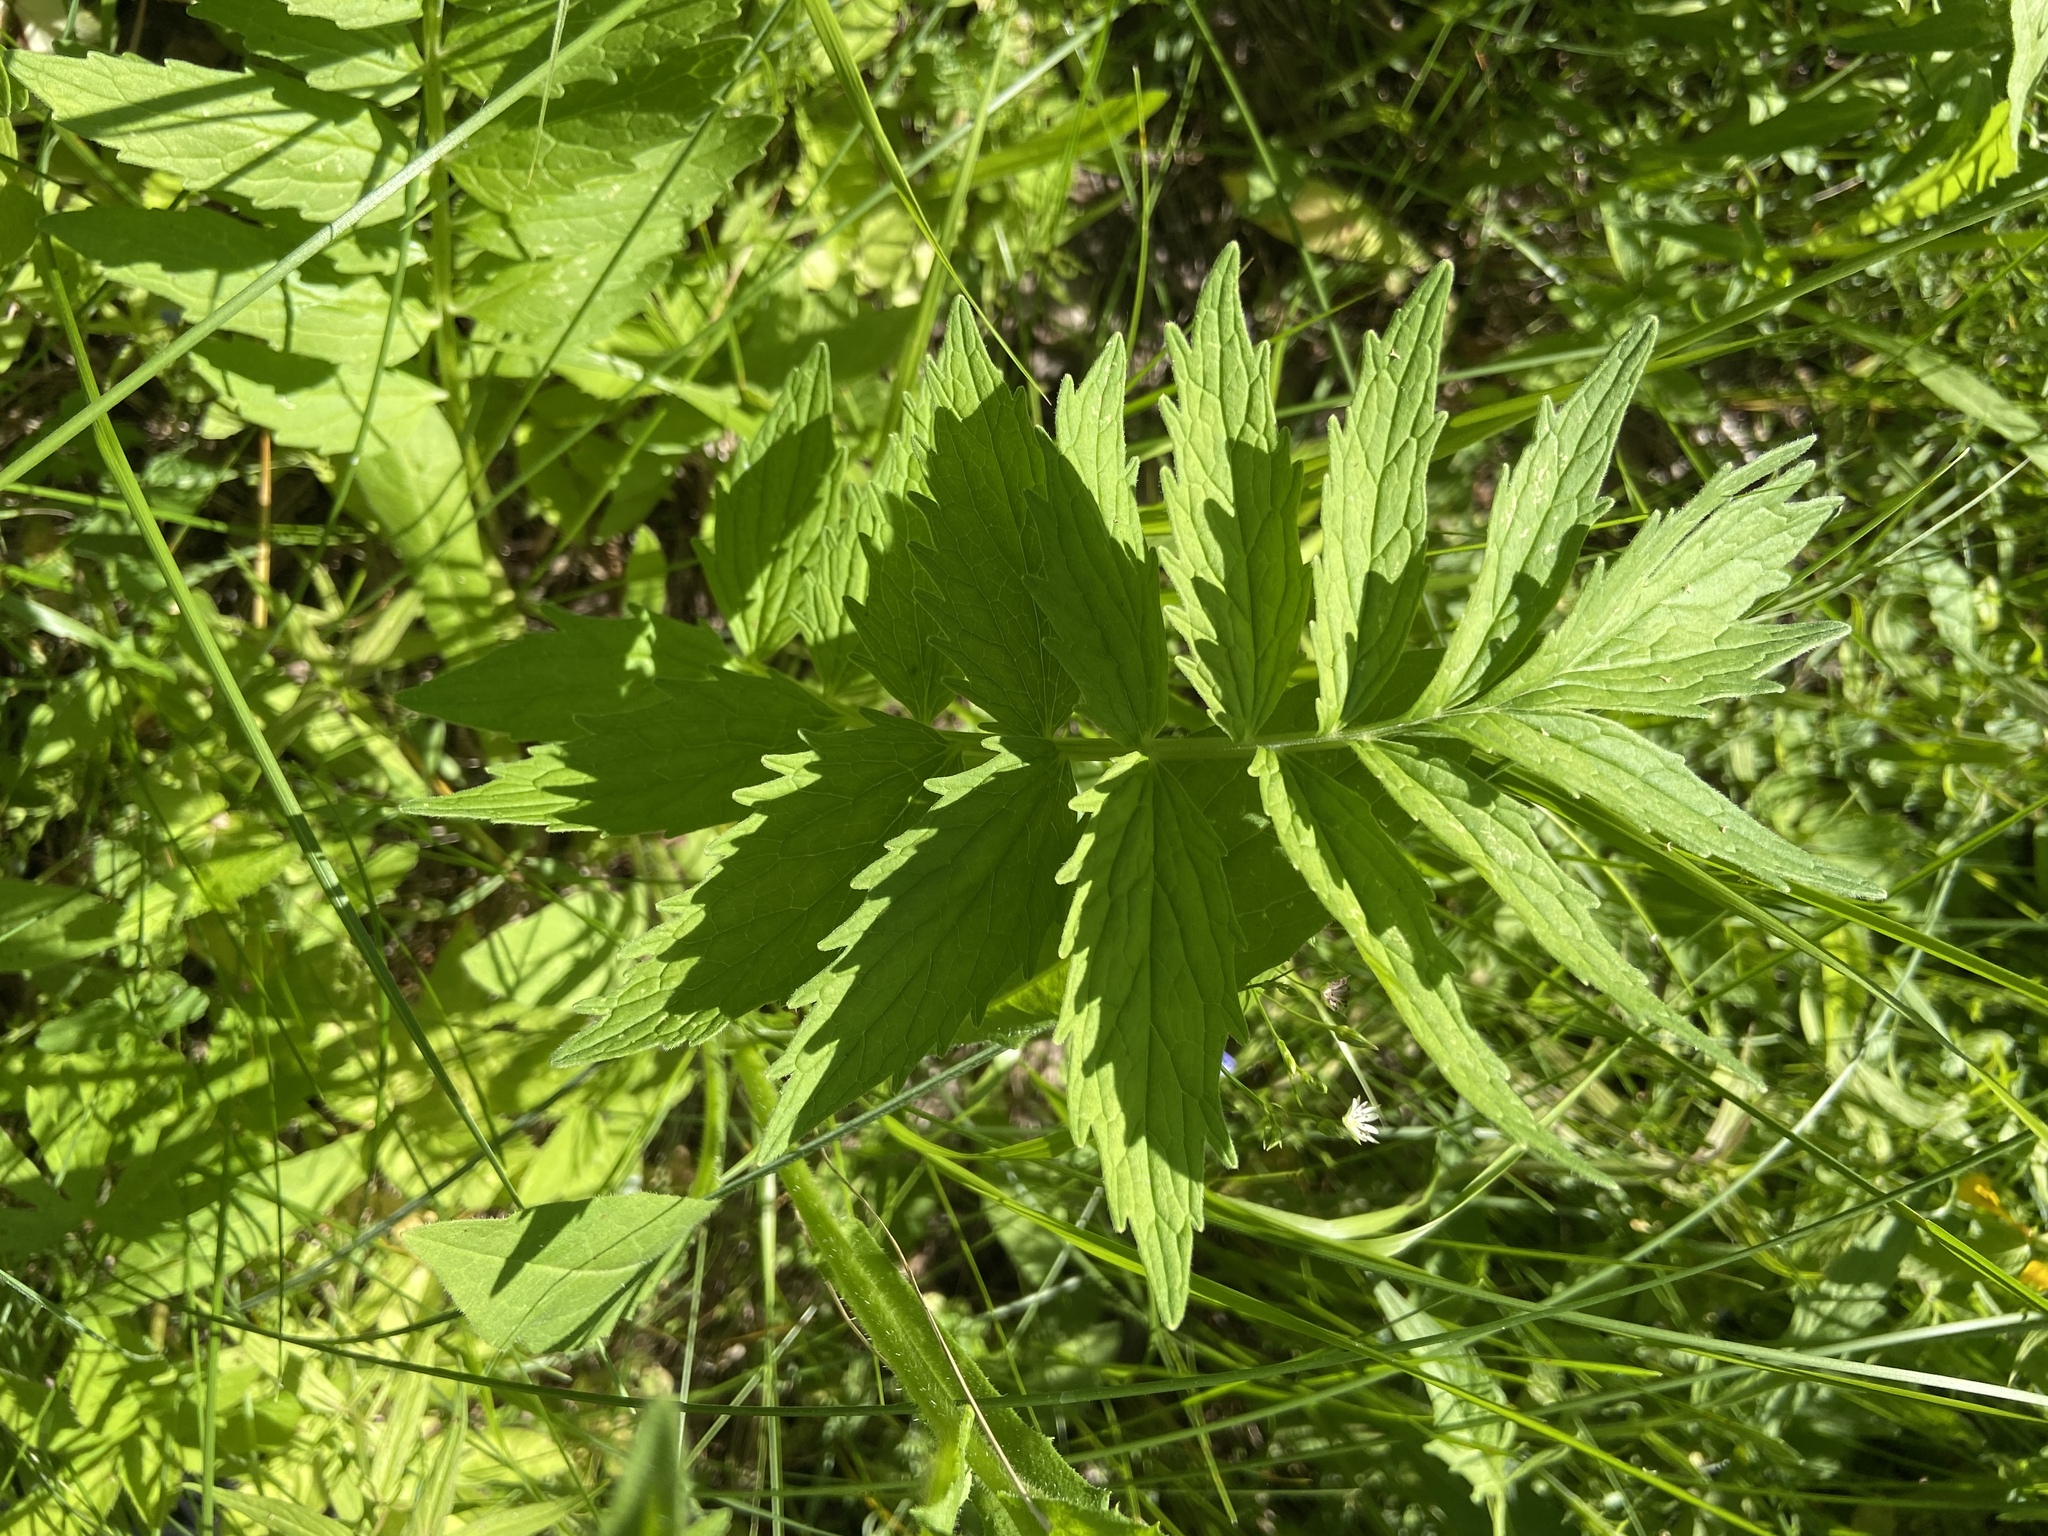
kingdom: Plantae
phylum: Tracheophyta
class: Magnoliopsida
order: Dipsacales
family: Caprifoliaceae
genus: Valeriana
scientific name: Valeriana officinalis
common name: Common valerian
